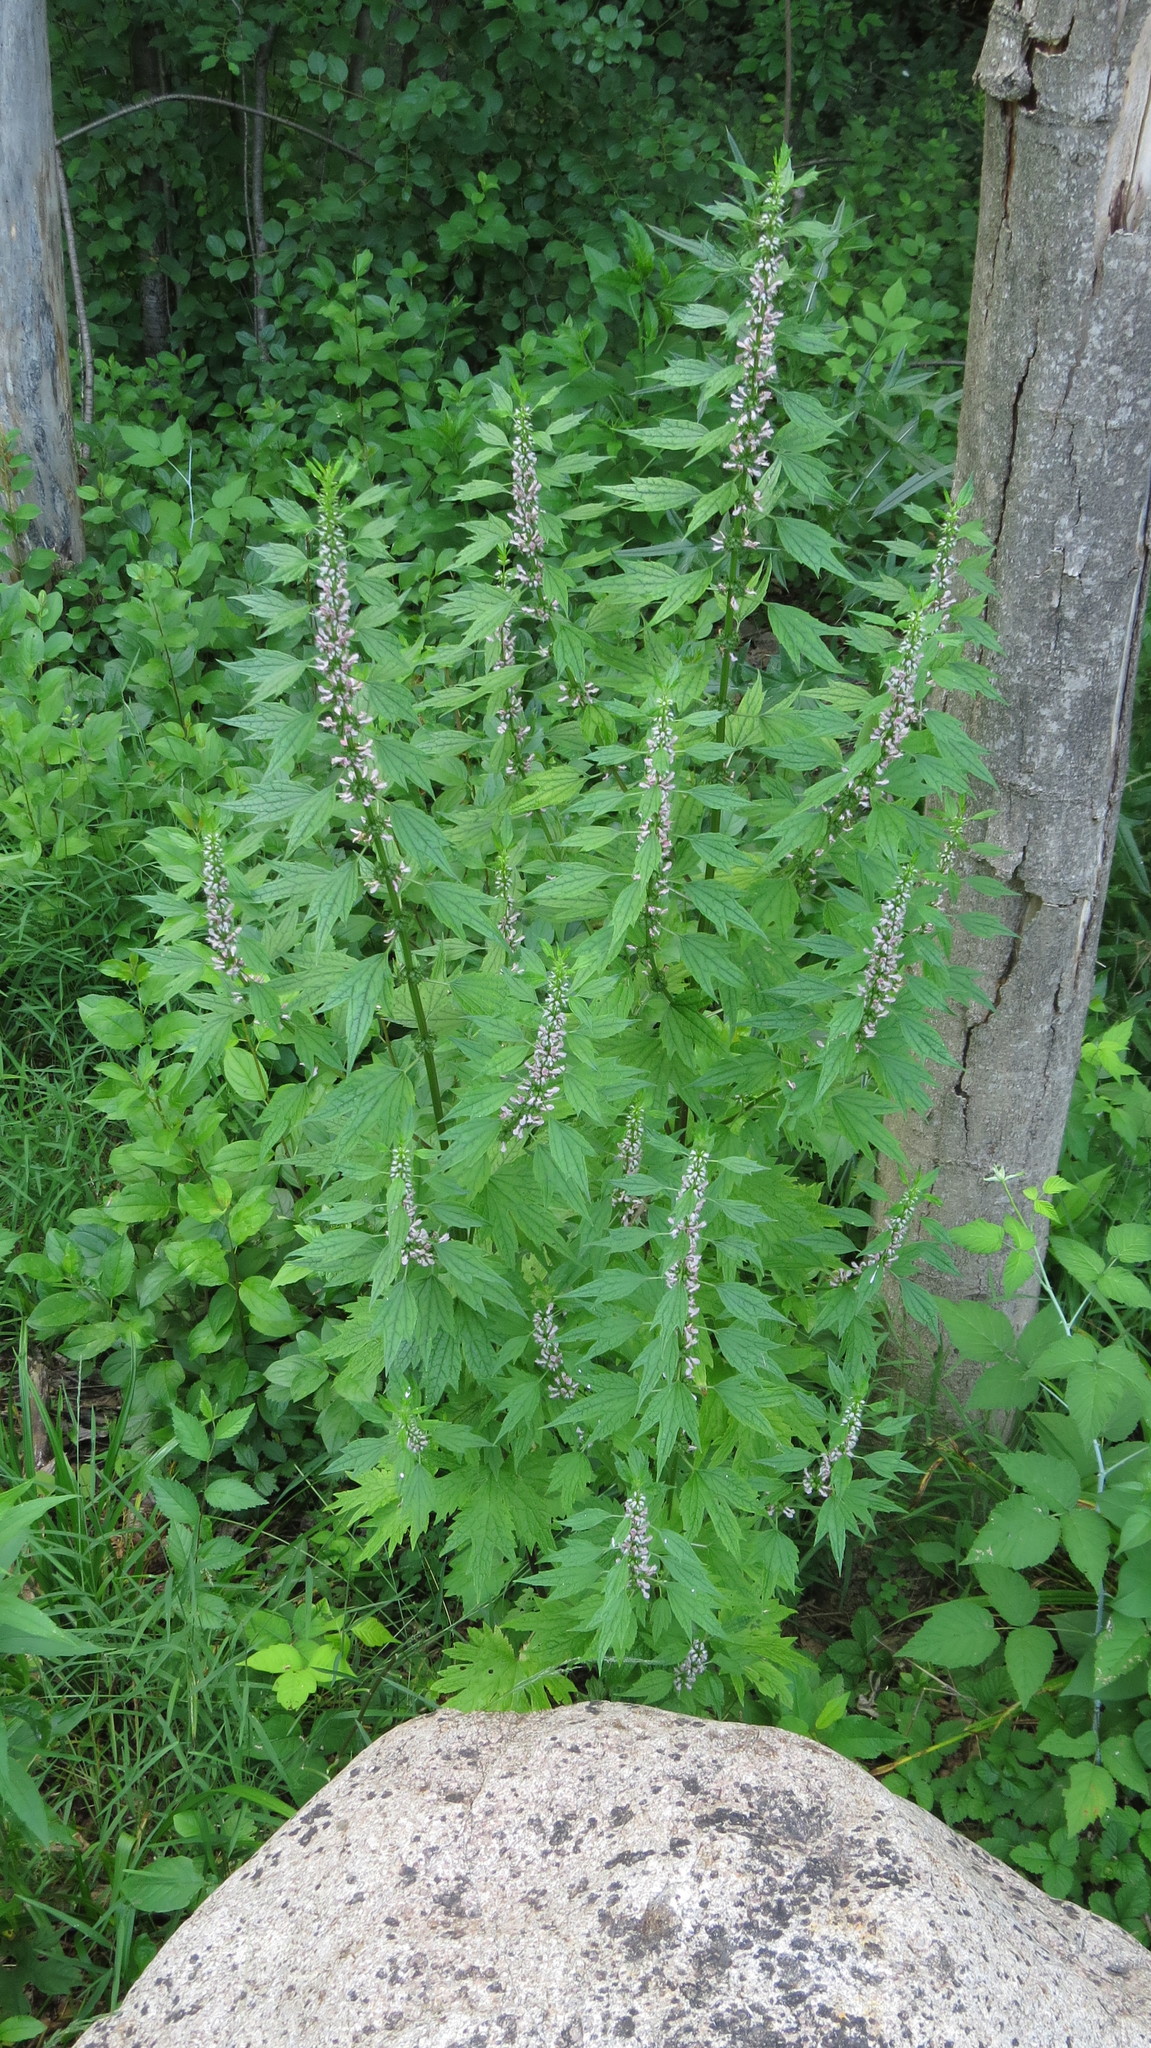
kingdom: Plantae
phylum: Tracheophyta
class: Magnoliopsida
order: Lamiales
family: Lamiaceae
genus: Leonurus
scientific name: Leonurus cardiaca
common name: Motherwort
